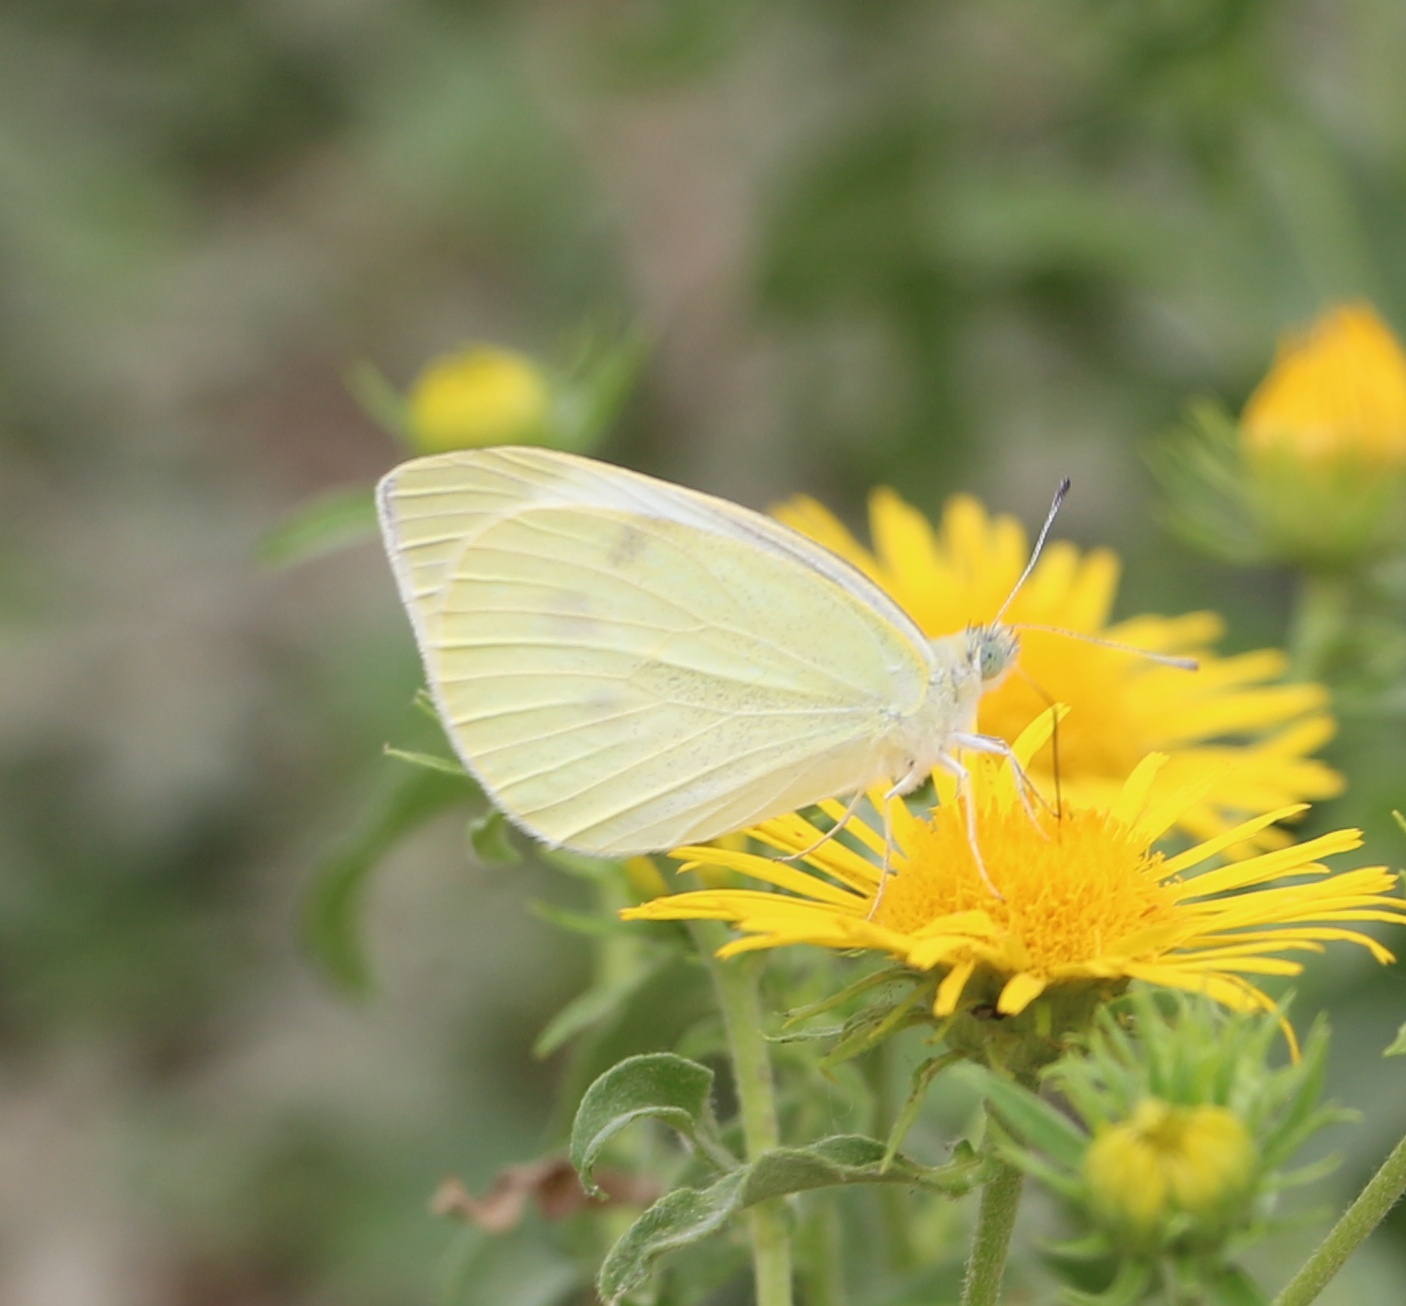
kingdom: Animalia
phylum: Arthropoda
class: Insecta
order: Lepidoptera
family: Pieridae
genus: Pieris
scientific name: Pieris rapae
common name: Small white
